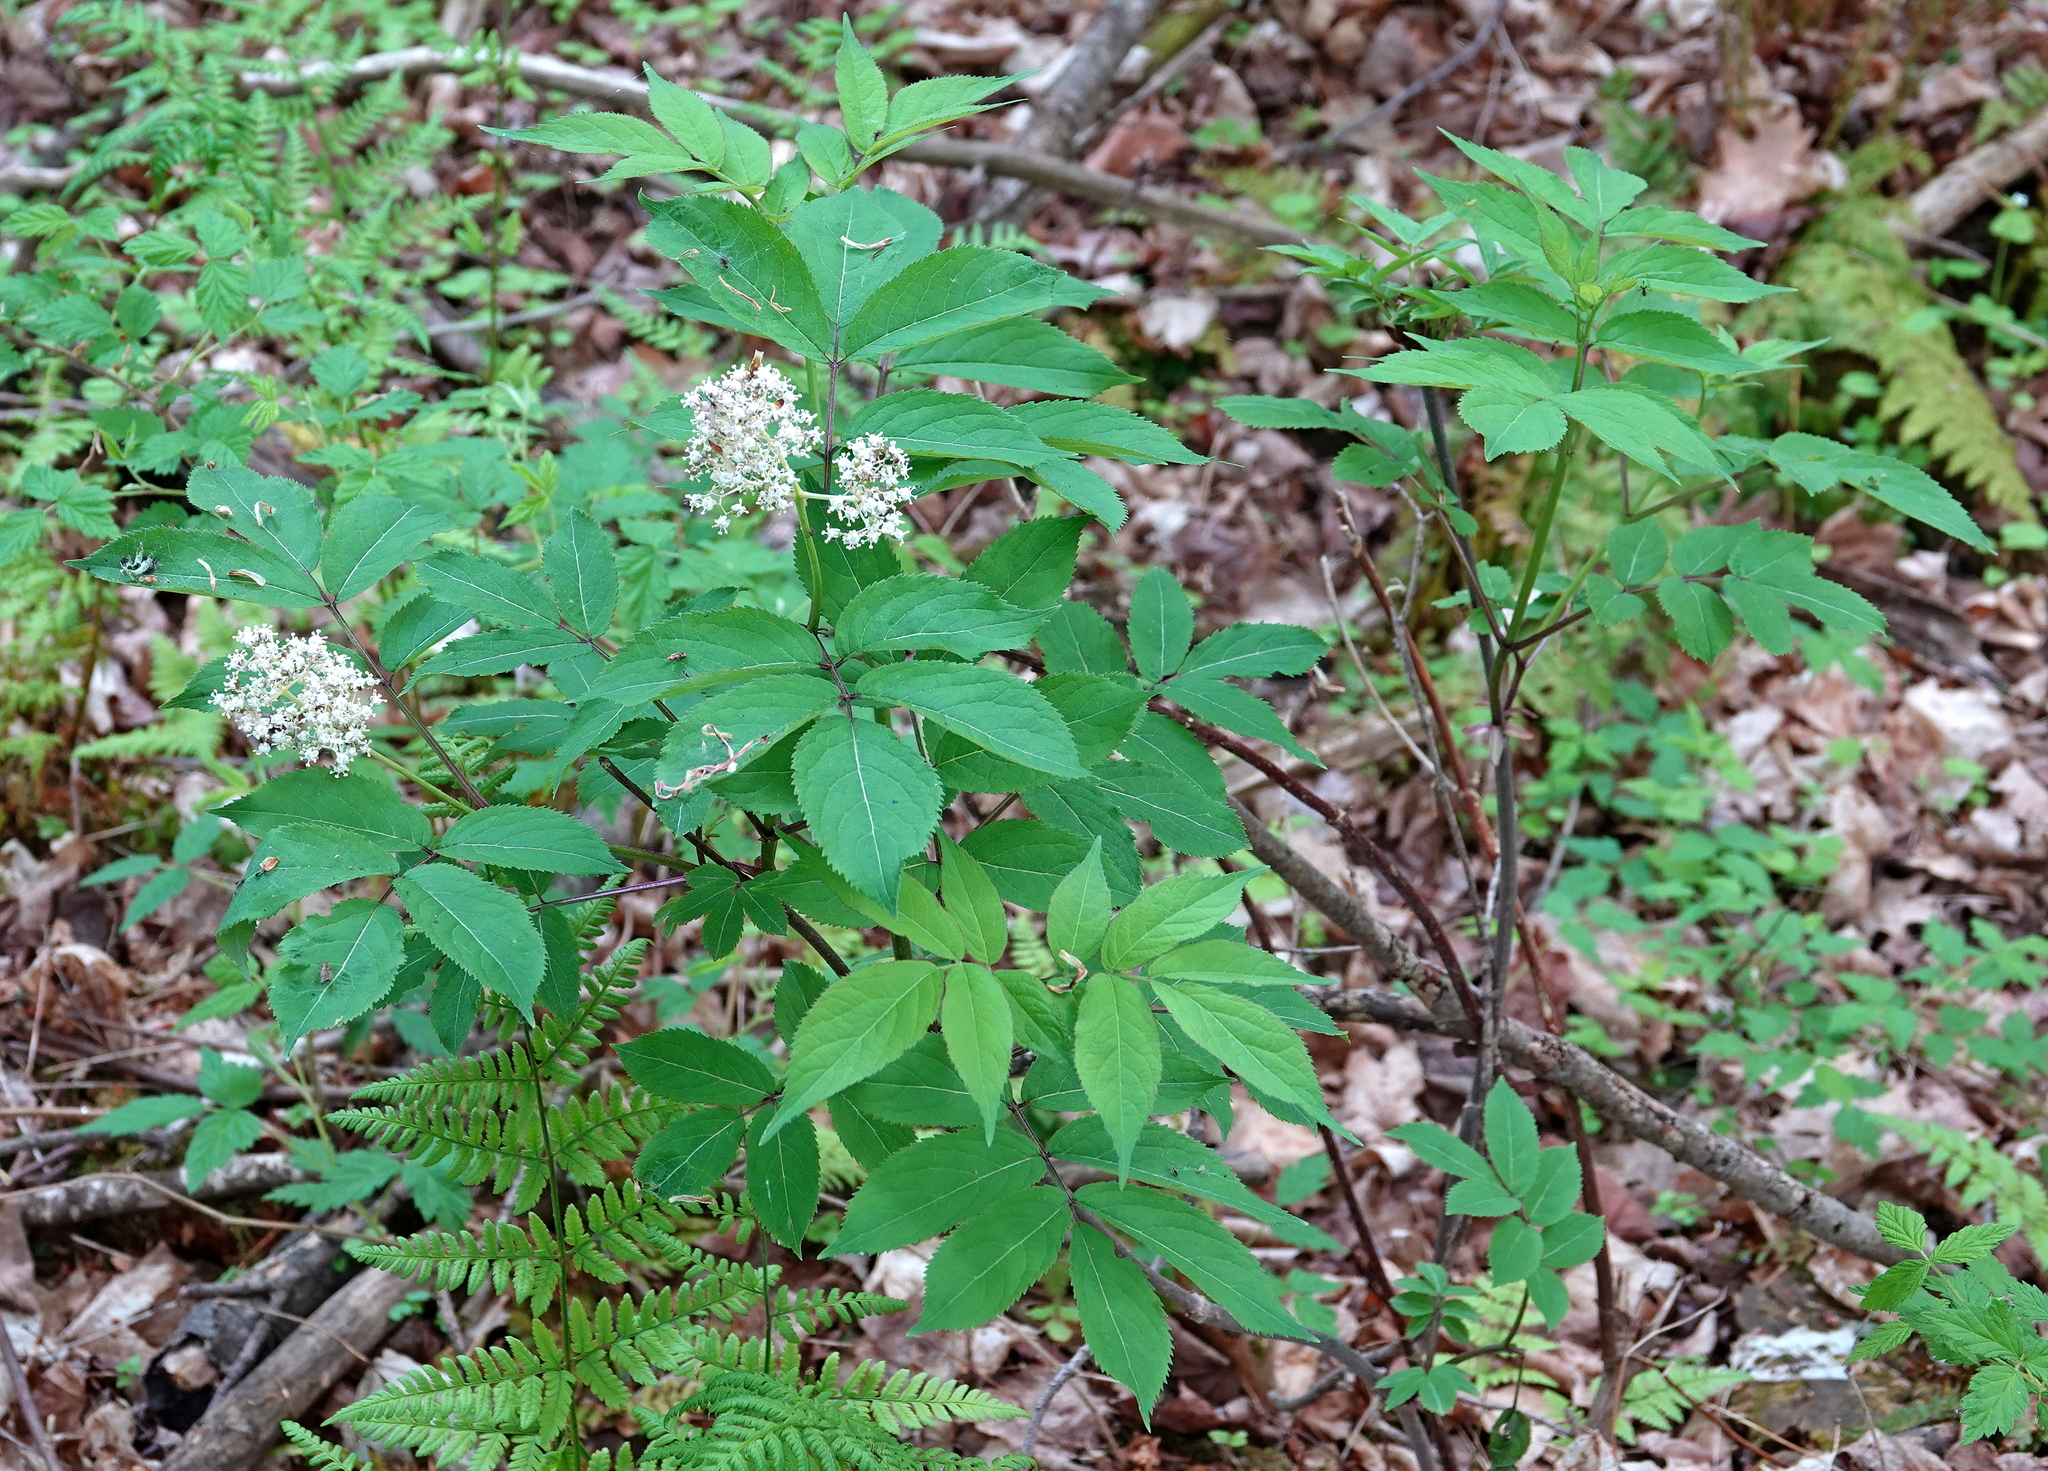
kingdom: Plantae
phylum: Tracheophyta
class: Magnoliopsida
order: Dipsacales
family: Viburnaceae
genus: Sambucus
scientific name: Sambucus racemosa
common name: Red-berried elder
